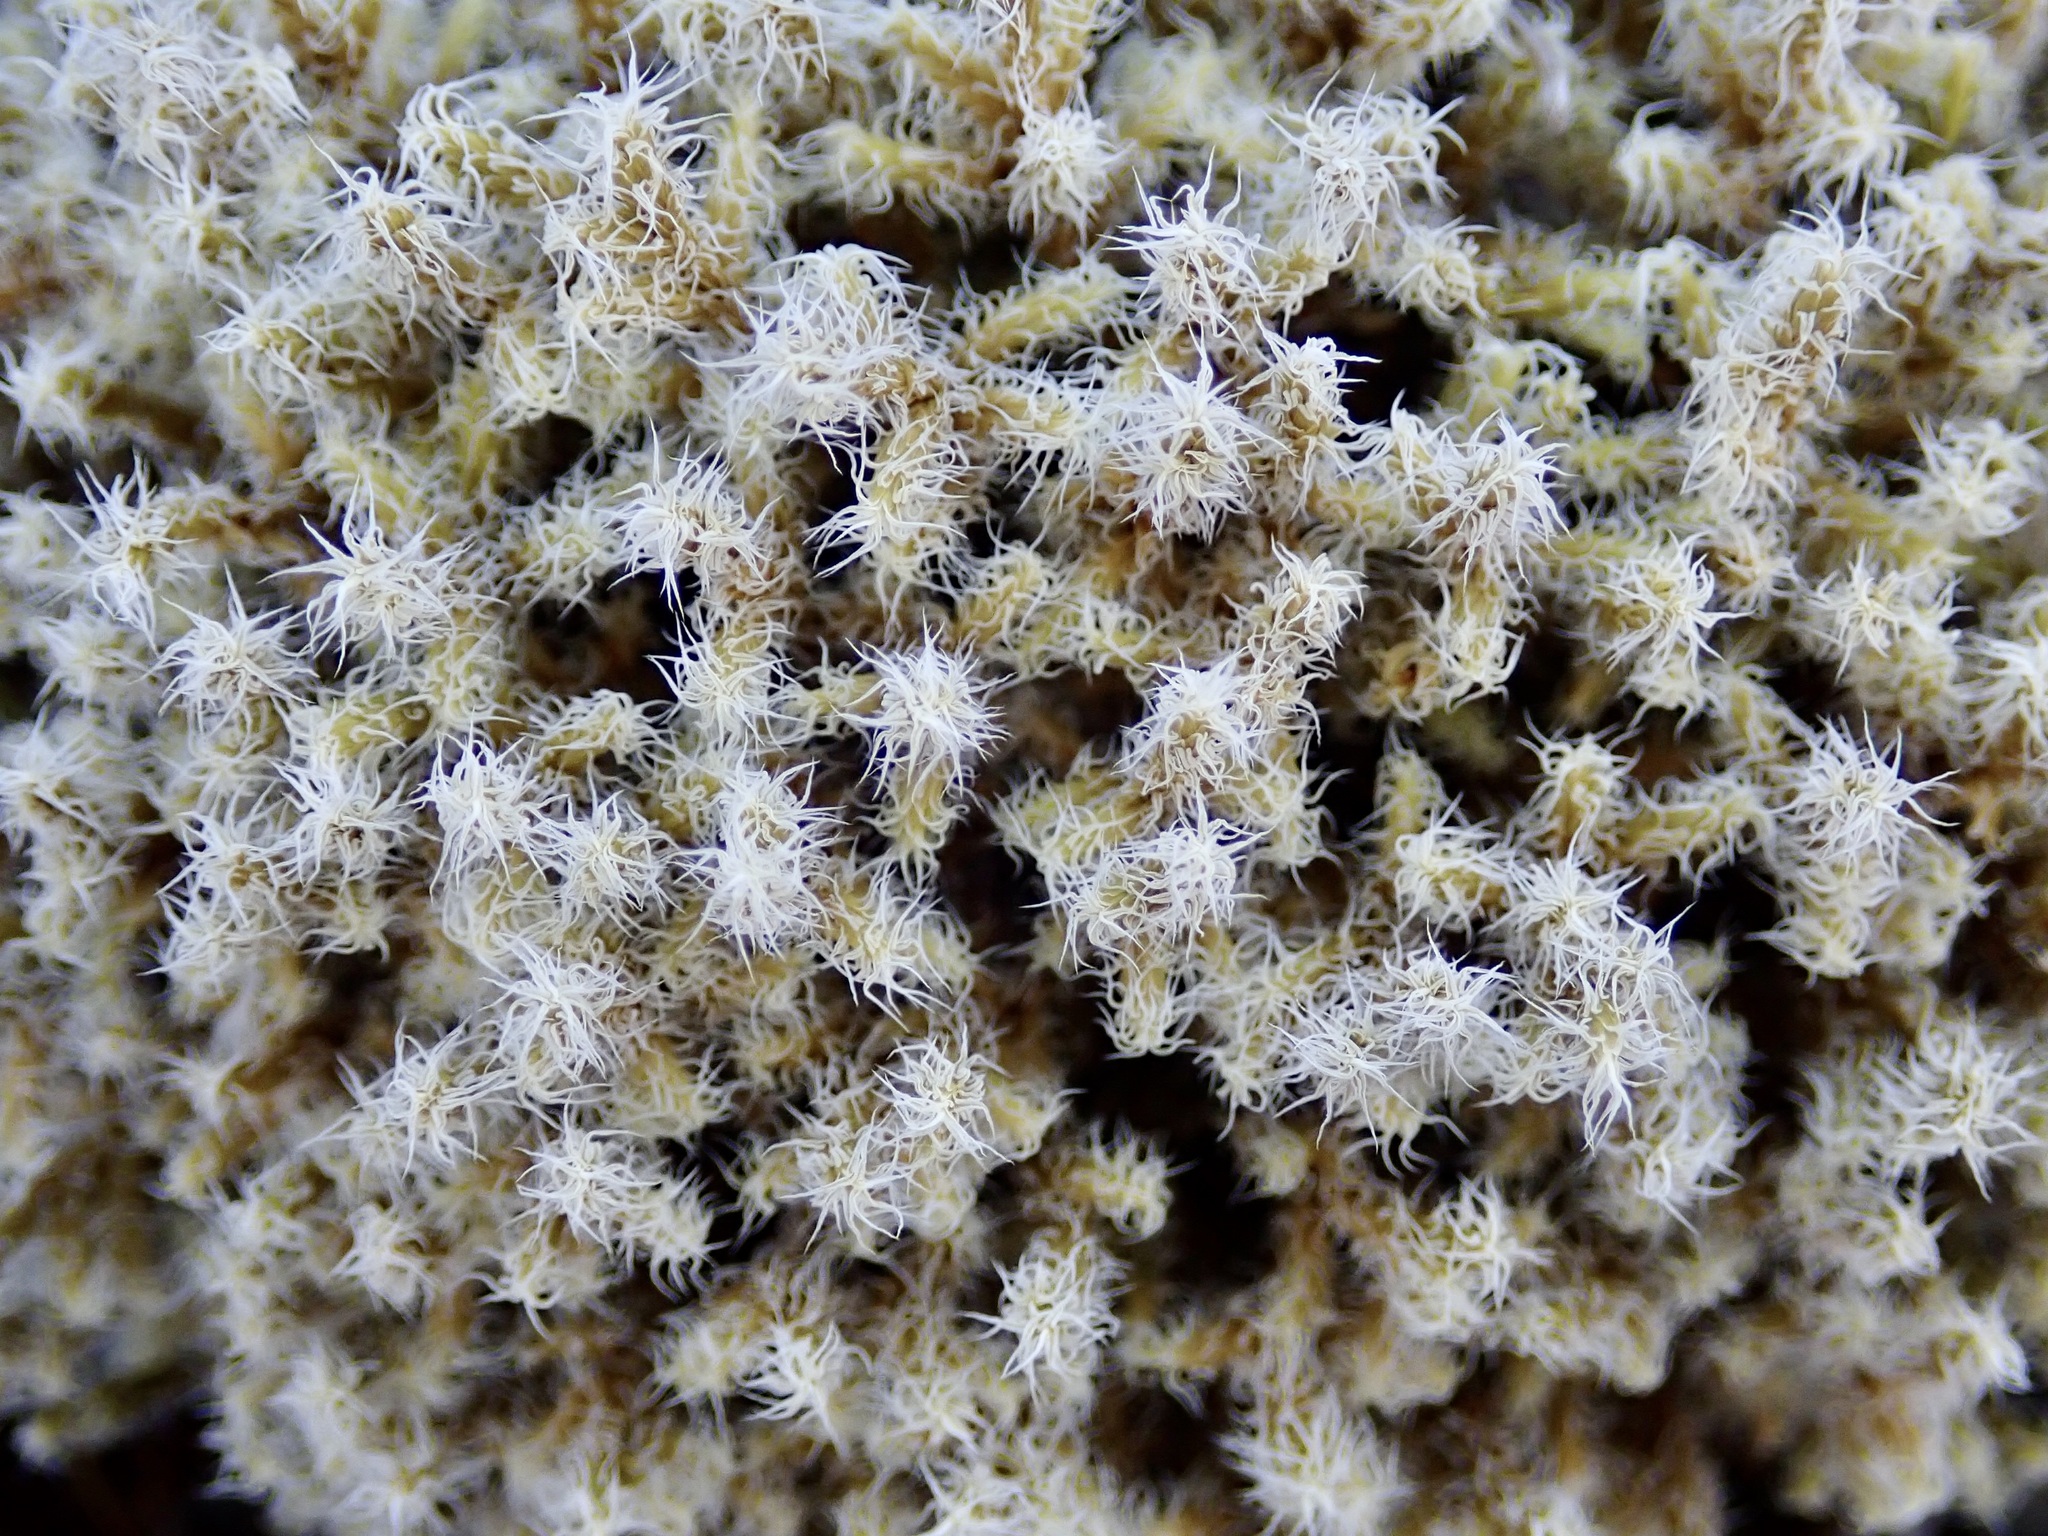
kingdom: Plantae
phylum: Bryophyta
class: Bryopsida
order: Grimmiales
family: Grimmiaceae
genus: Racomitrium
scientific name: Racomitrium lanuginosum
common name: Hoary rock moss
